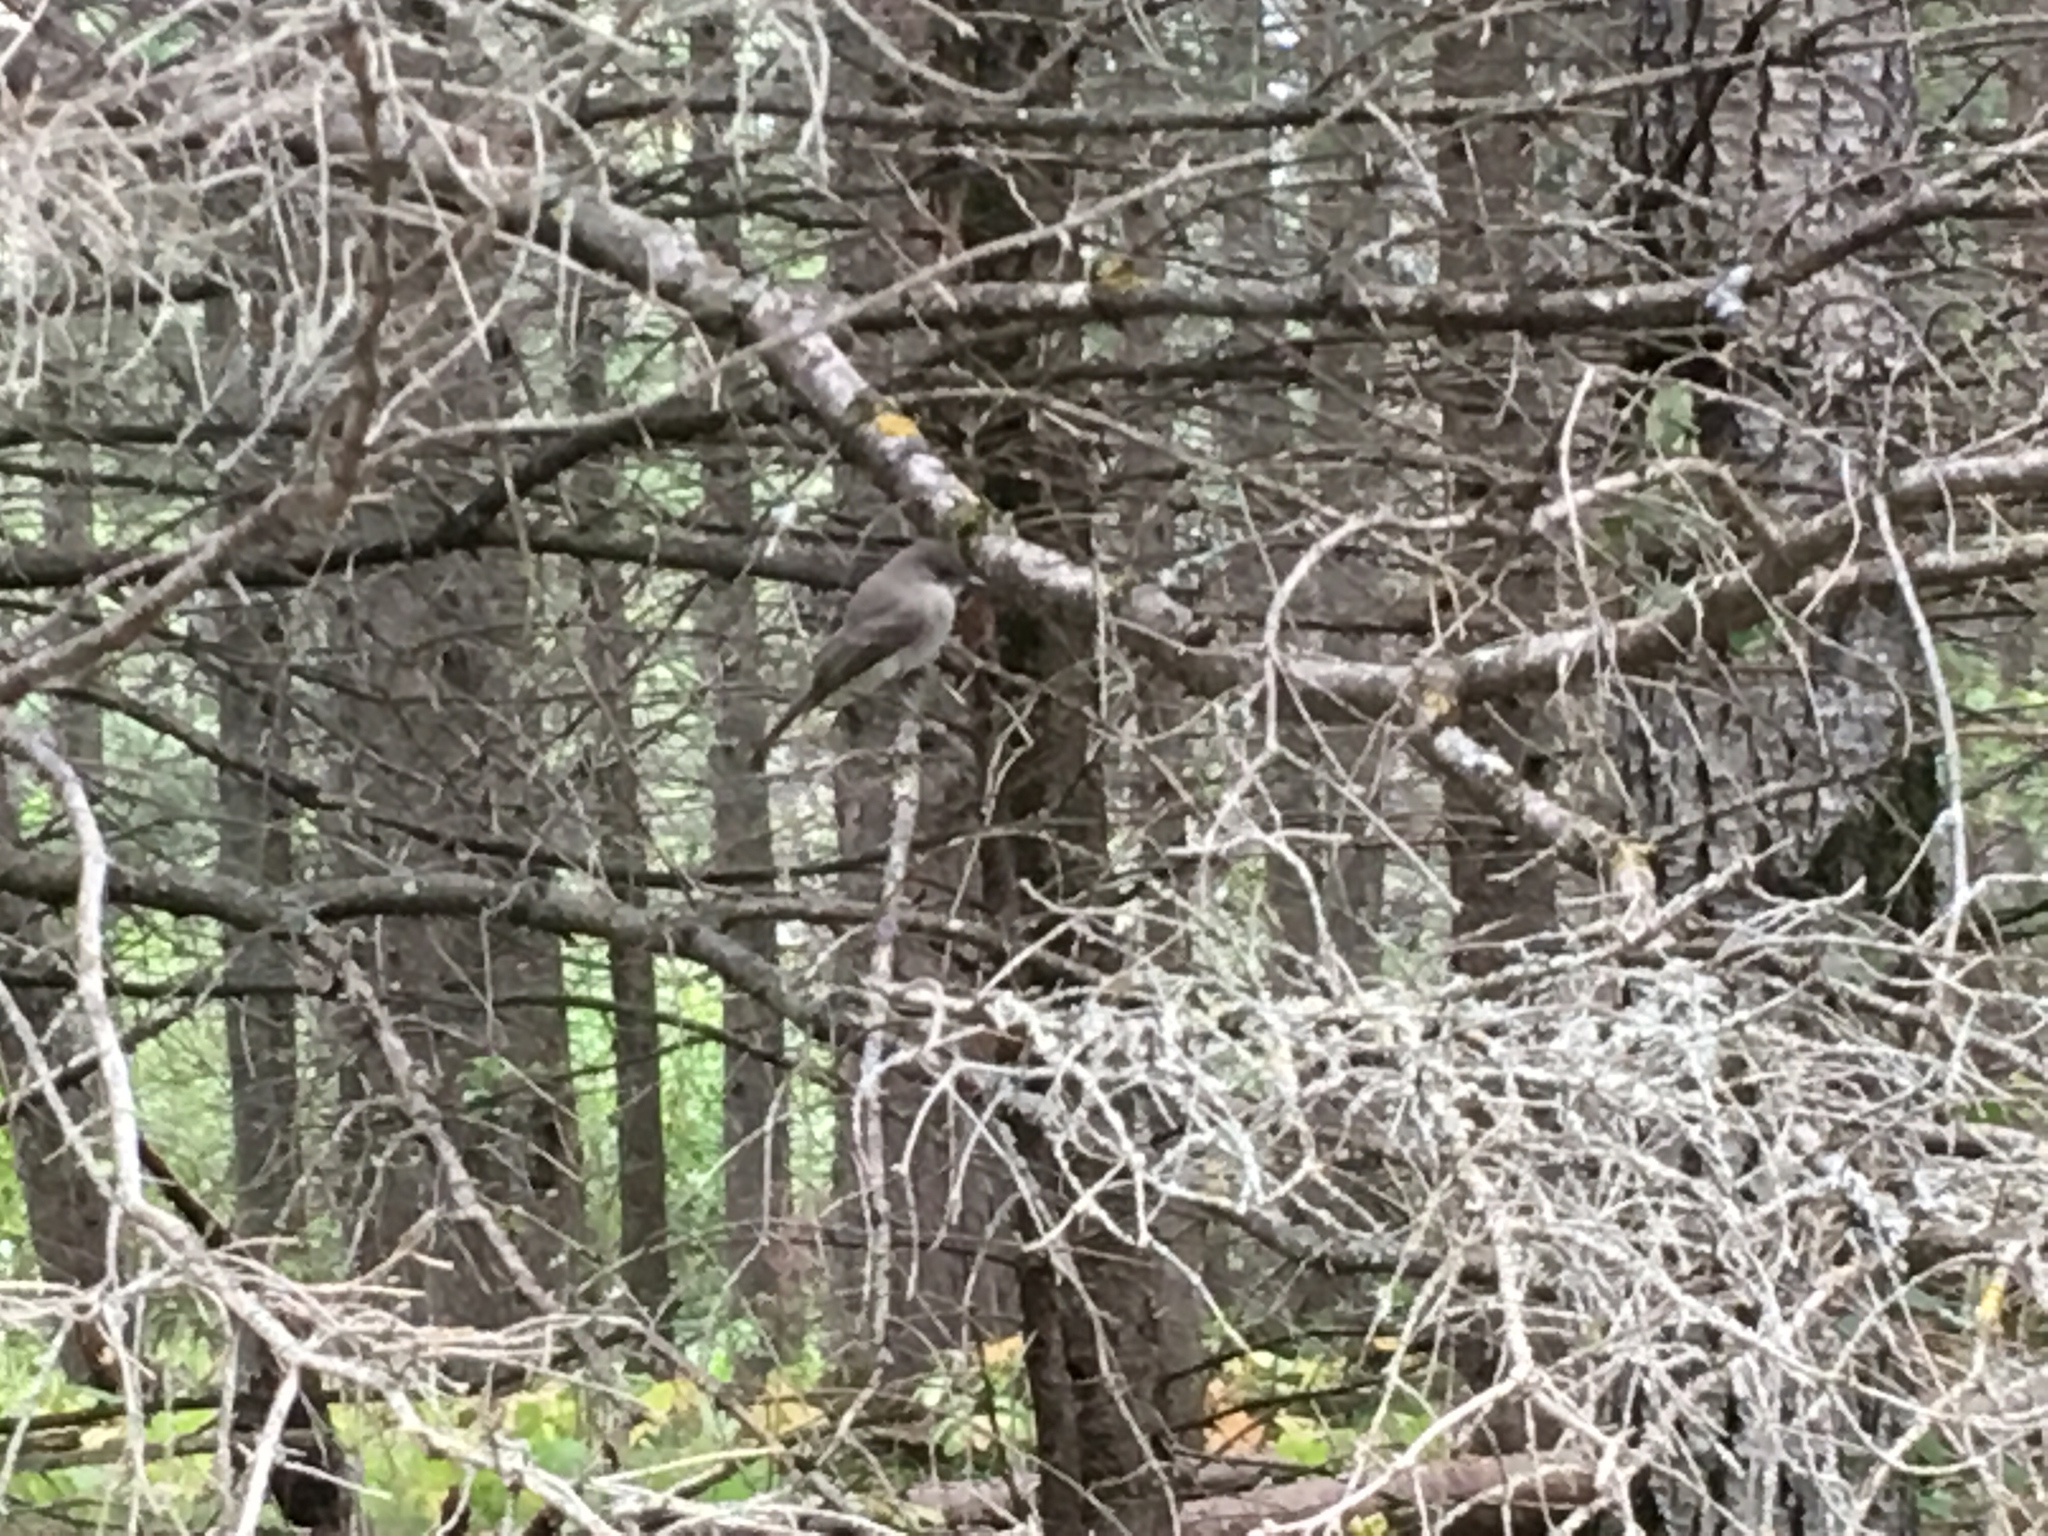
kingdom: Animalia
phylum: Chordata
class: Aves
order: Passeriformes
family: Tyrannidae
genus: Sayornis
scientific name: Sayornis phoebe
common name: Eastern phoebe
